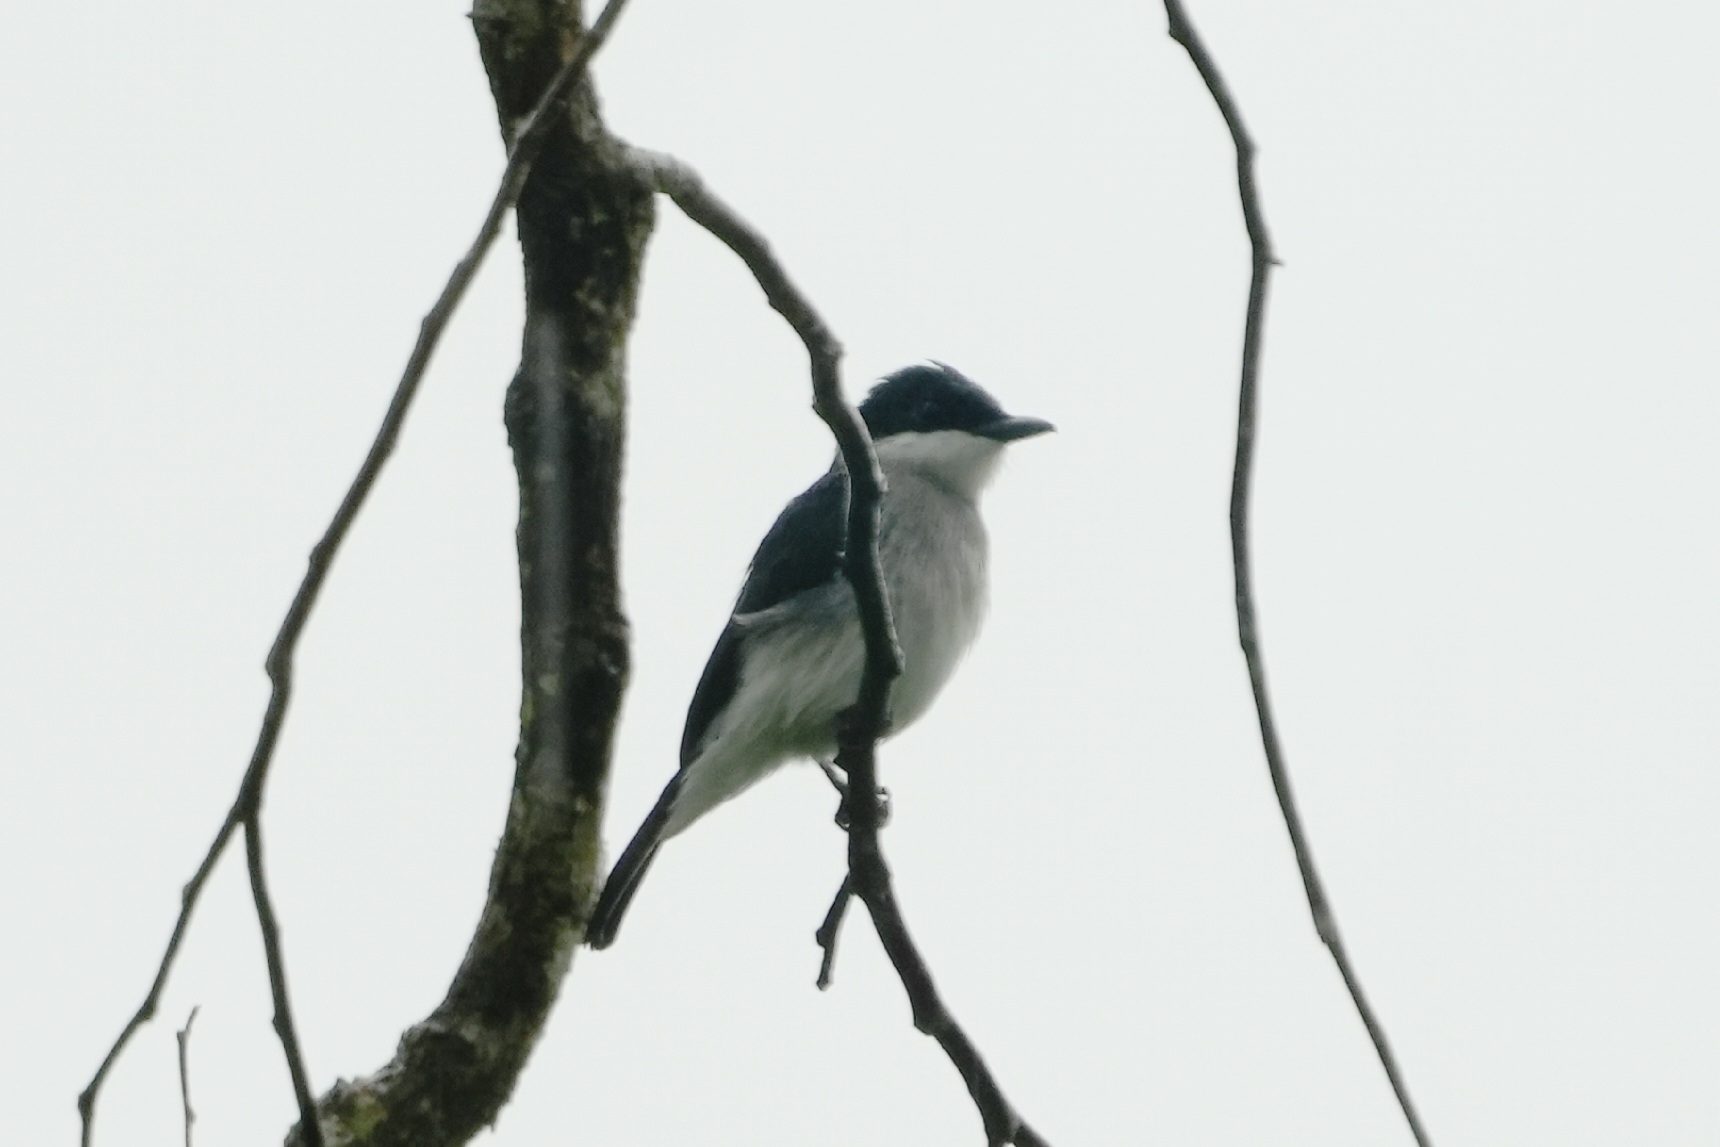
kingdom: Animalia
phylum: Chordata
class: Aves
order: Passeriformes
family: Tephrodornithidae
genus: Hemipus
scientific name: Hemipus hirundinaceus
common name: Black-winged flycatcher-shrike
